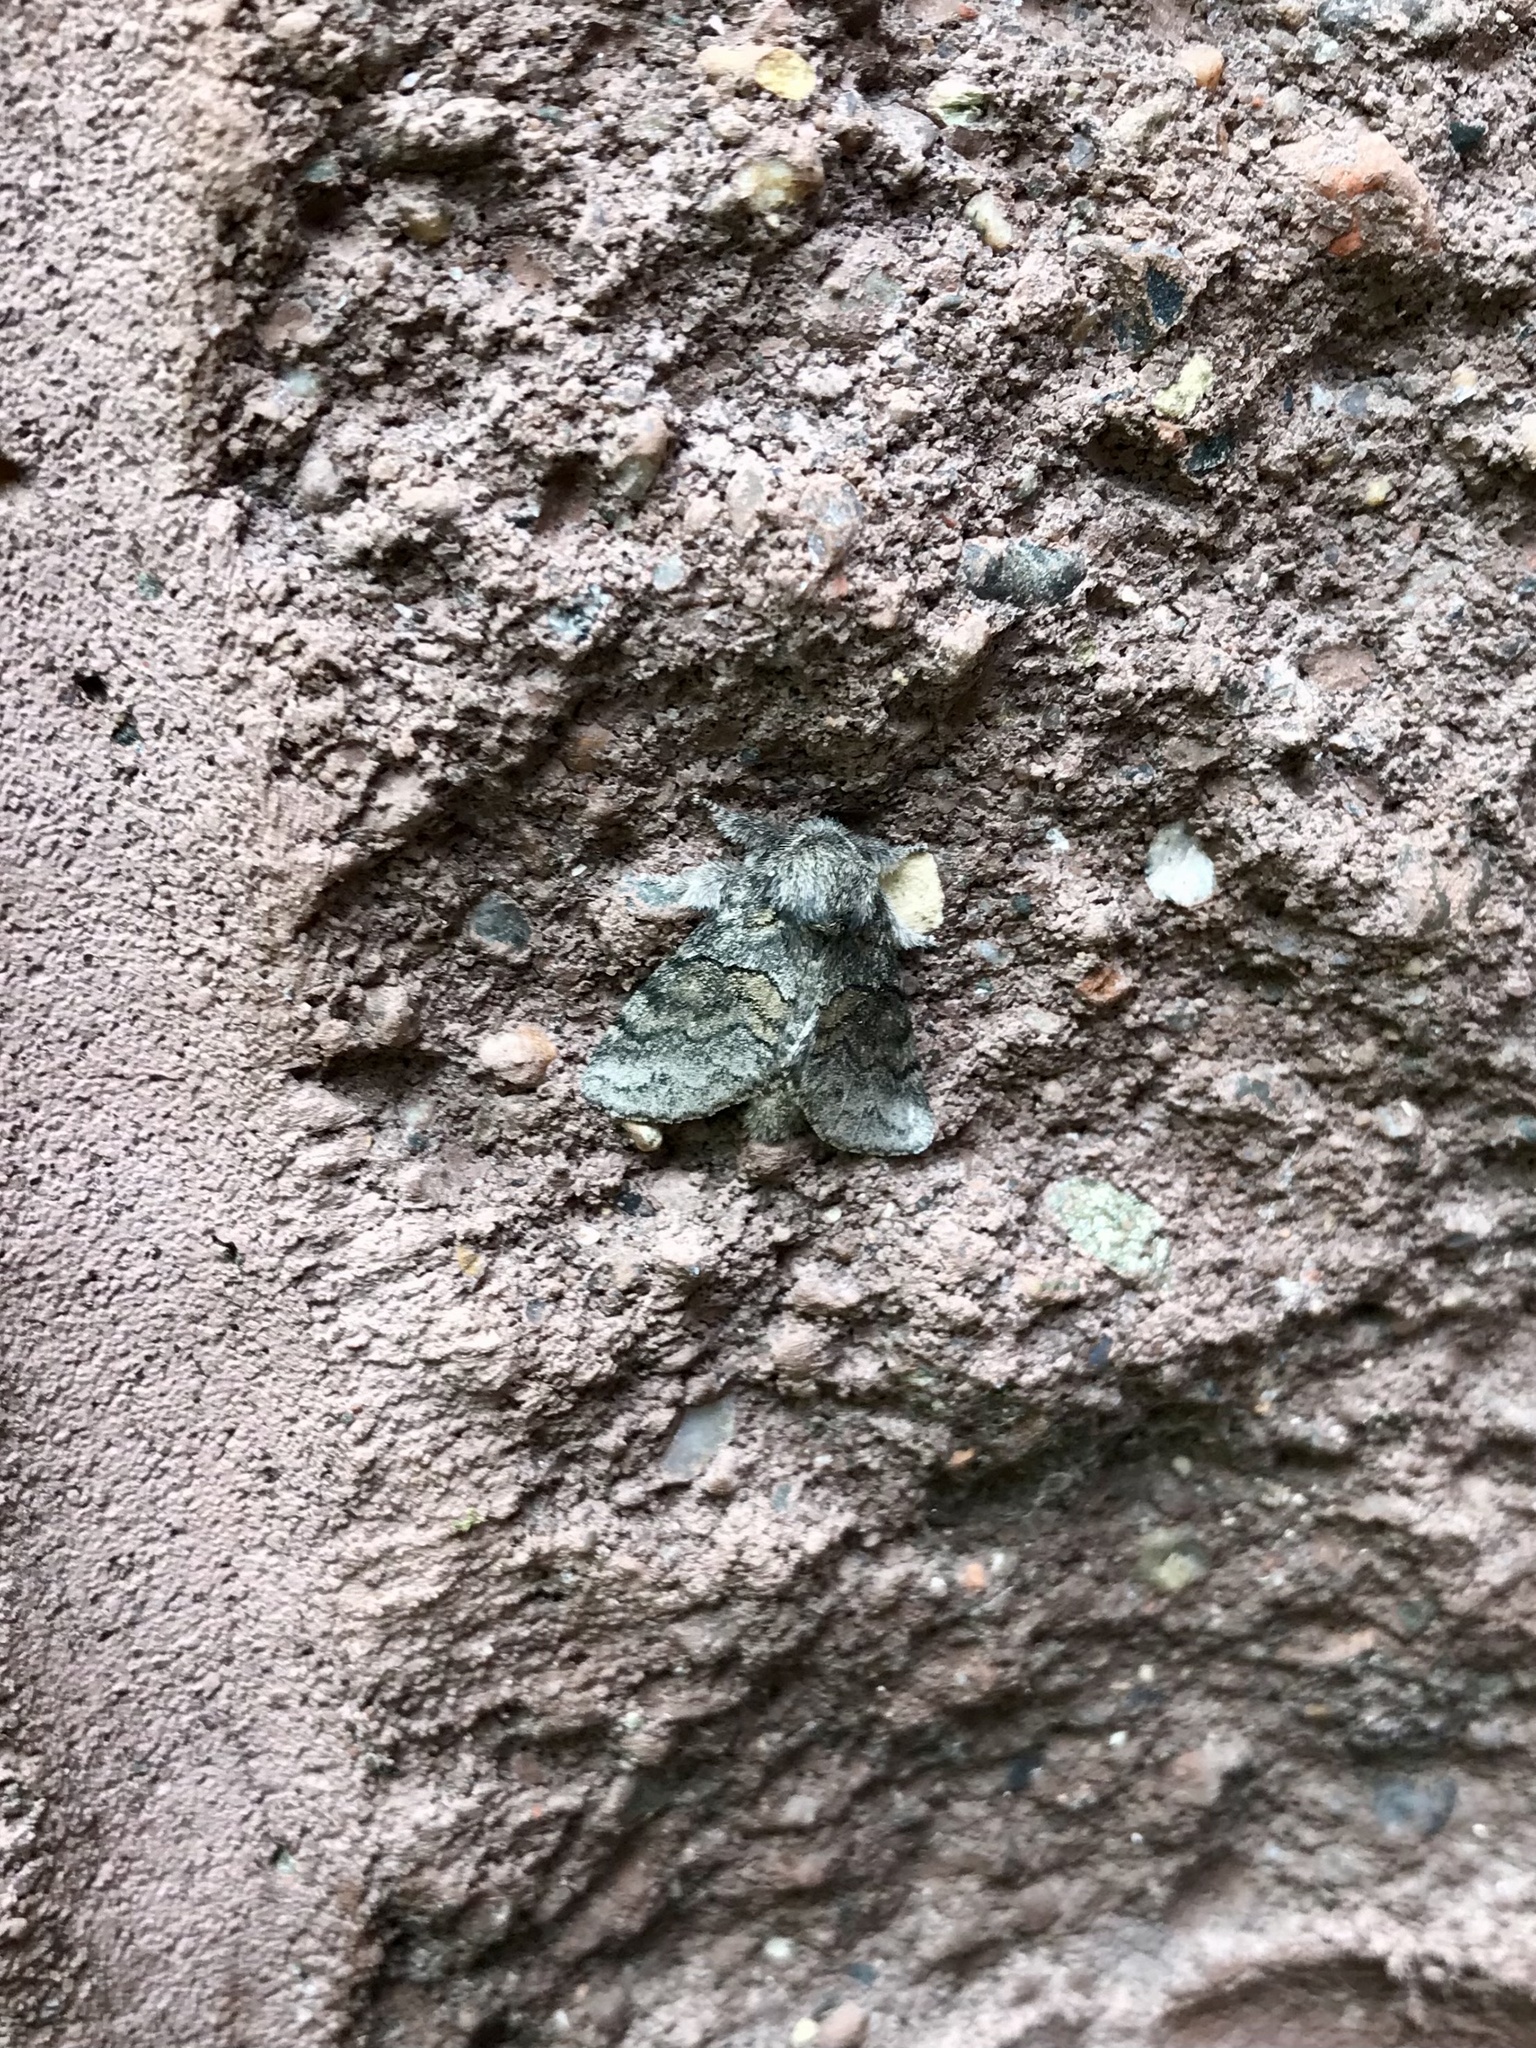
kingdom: Animalia
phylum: Arthropoda
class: Insecta
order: Lepidoptera
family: Notodontidae
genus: Gluphisia
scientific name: Gluphisia septentrionis
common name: Common gluphisia
